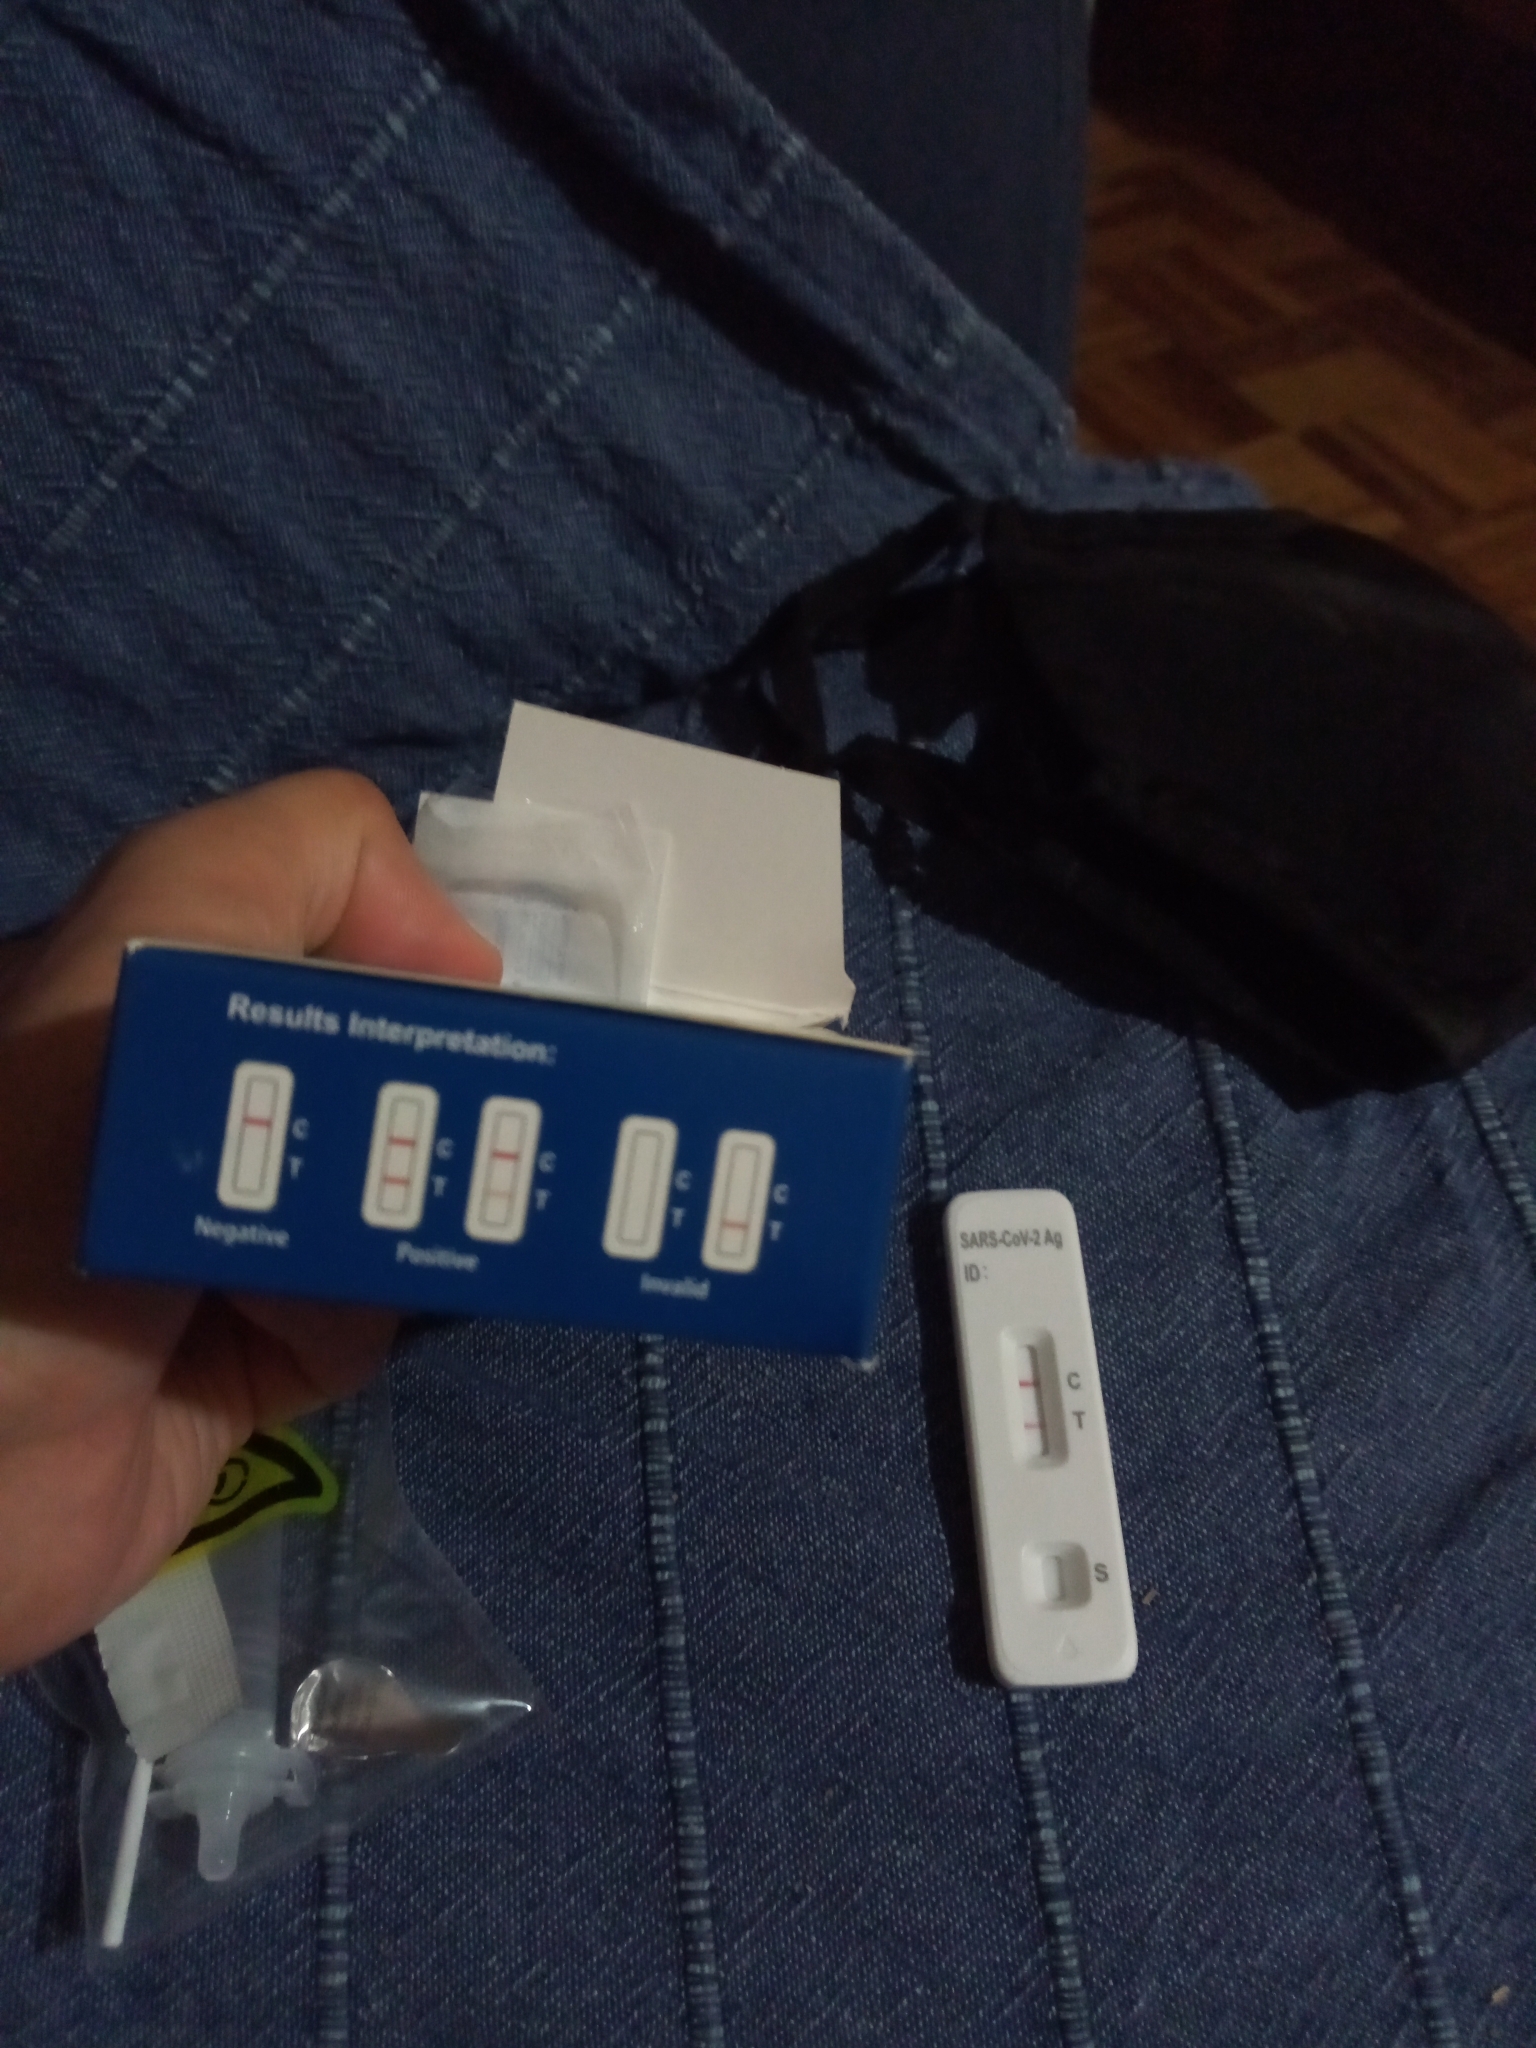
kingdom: Viruses
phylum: Pisuviricota
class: Pisoniviricetes
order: Nidovirales
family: Coronaviridae
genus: Betacoronavirus
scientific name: Betacoronavirus
